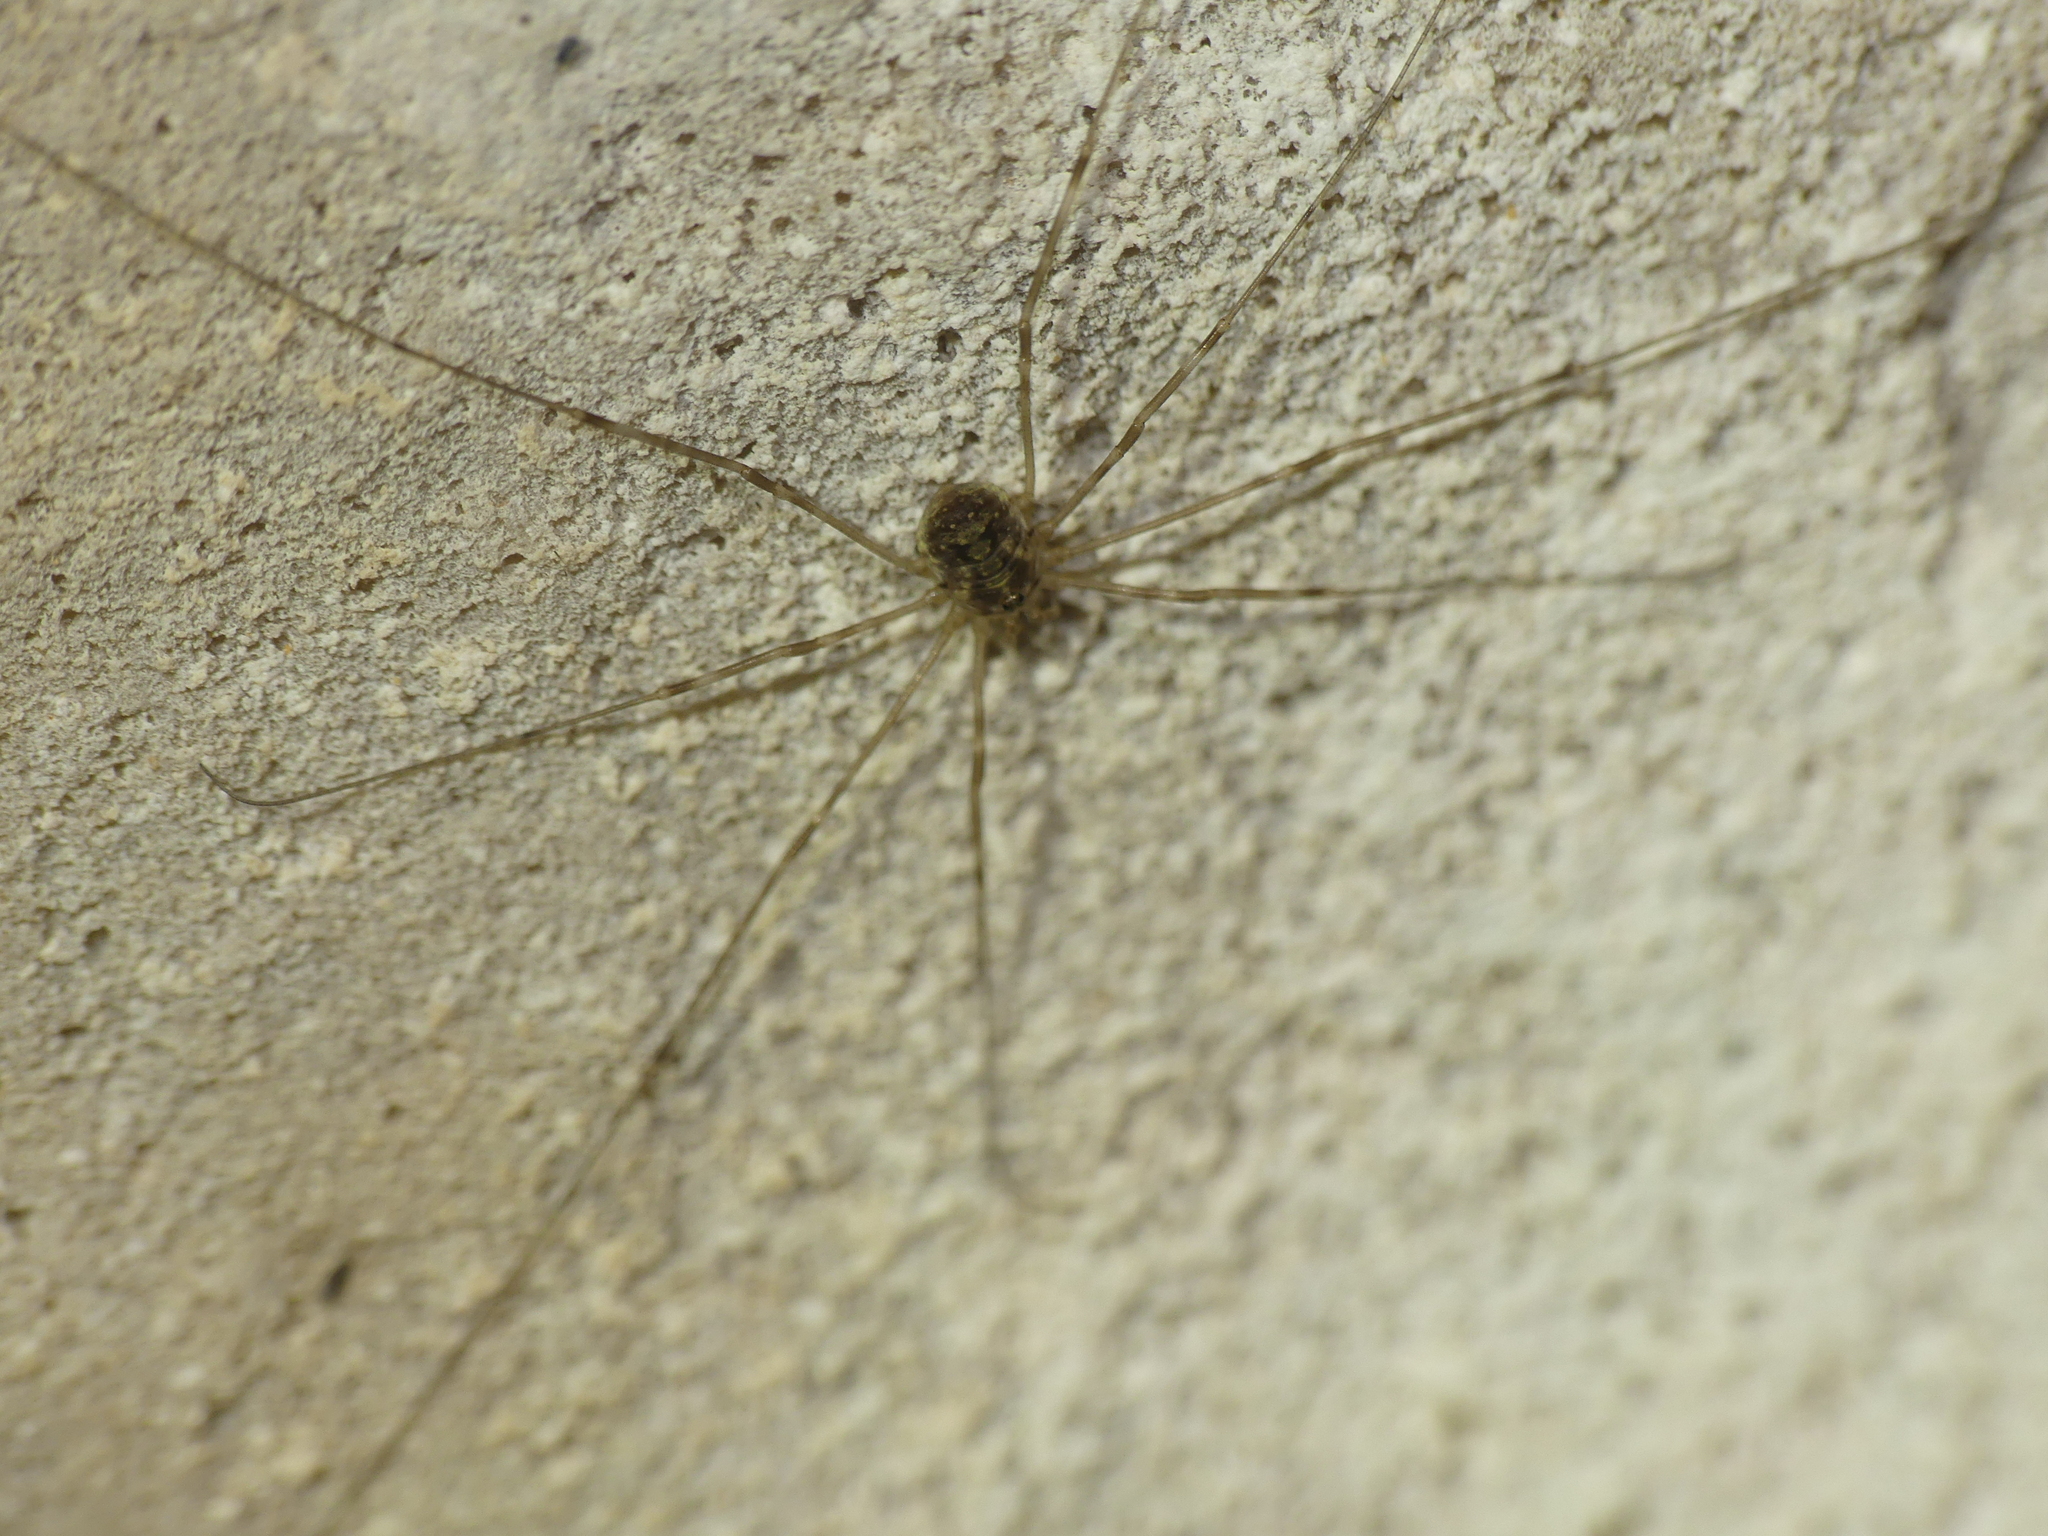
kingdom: Animalia
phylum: Arthropoda
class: Arachnida
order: Opiliones
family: Phalangiidae
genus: Amilenus
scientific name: Amilenus aurantiacus
